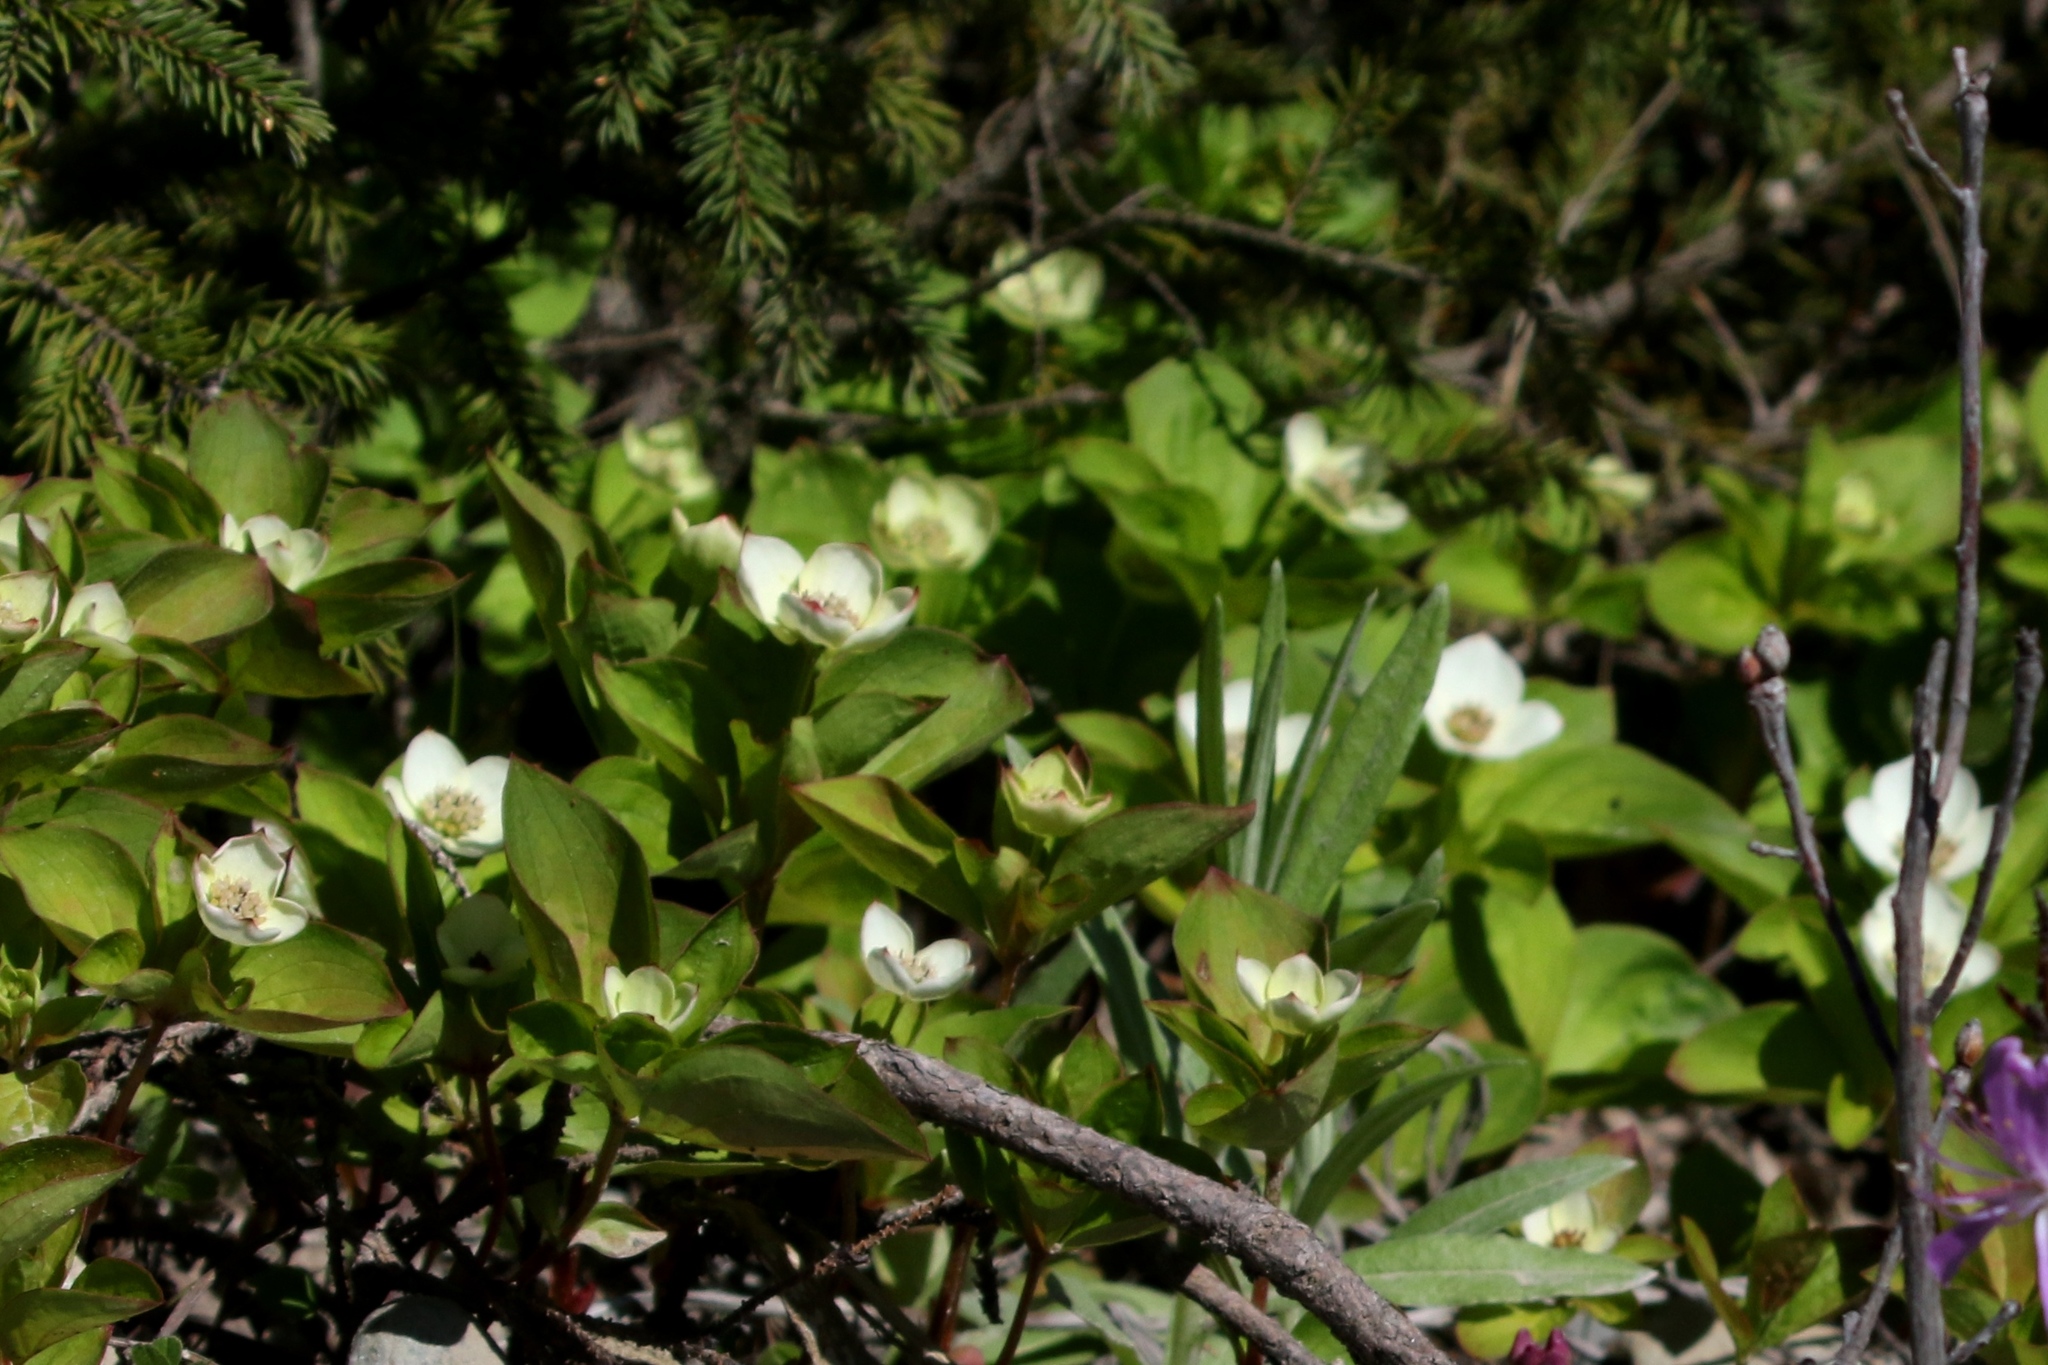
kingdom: Plantae
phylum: Tracheophyta
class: Magnoliopsida
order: Cornales
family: Cornaceae
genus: Cornus
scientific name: Cornus canadensis
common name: Creeping dogwood
